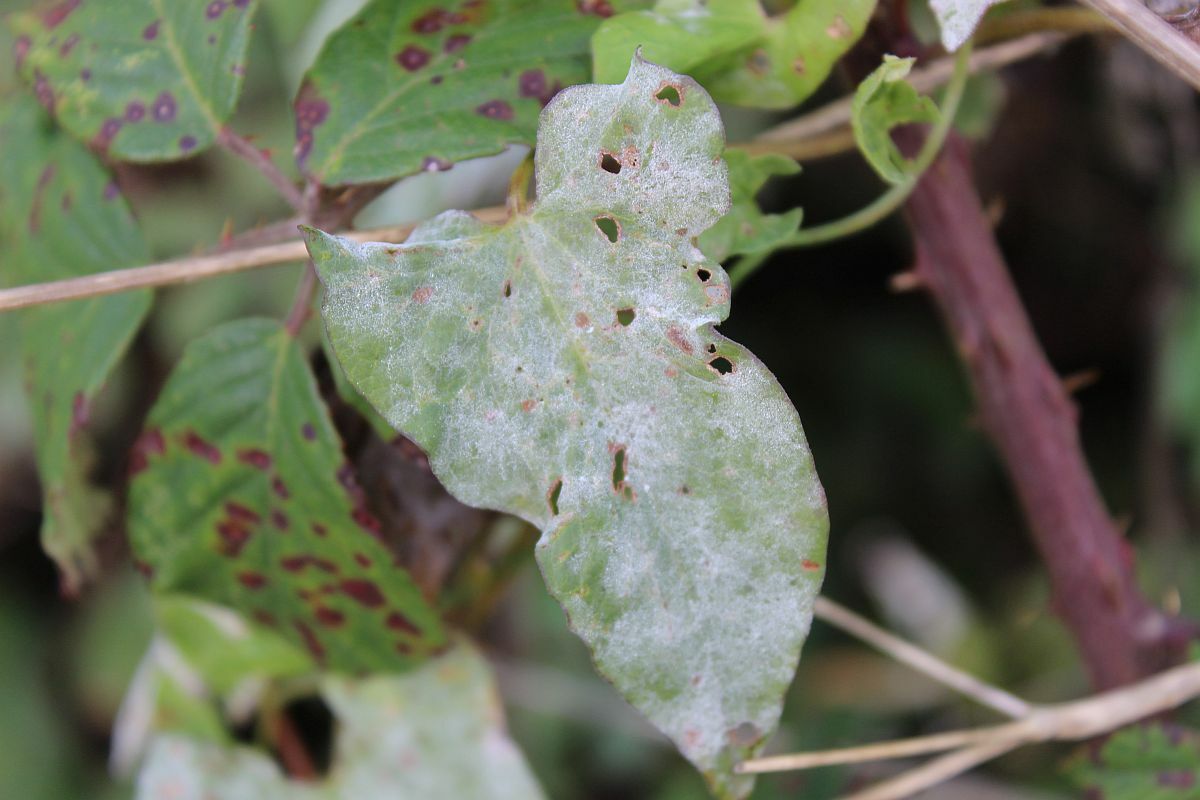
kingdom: Fungi
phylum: Ascomycota
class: Leotiomycetes
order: Helotiales
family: Erysiphaceae
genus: Erysiphe
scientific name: Erysiphe convolvuli
